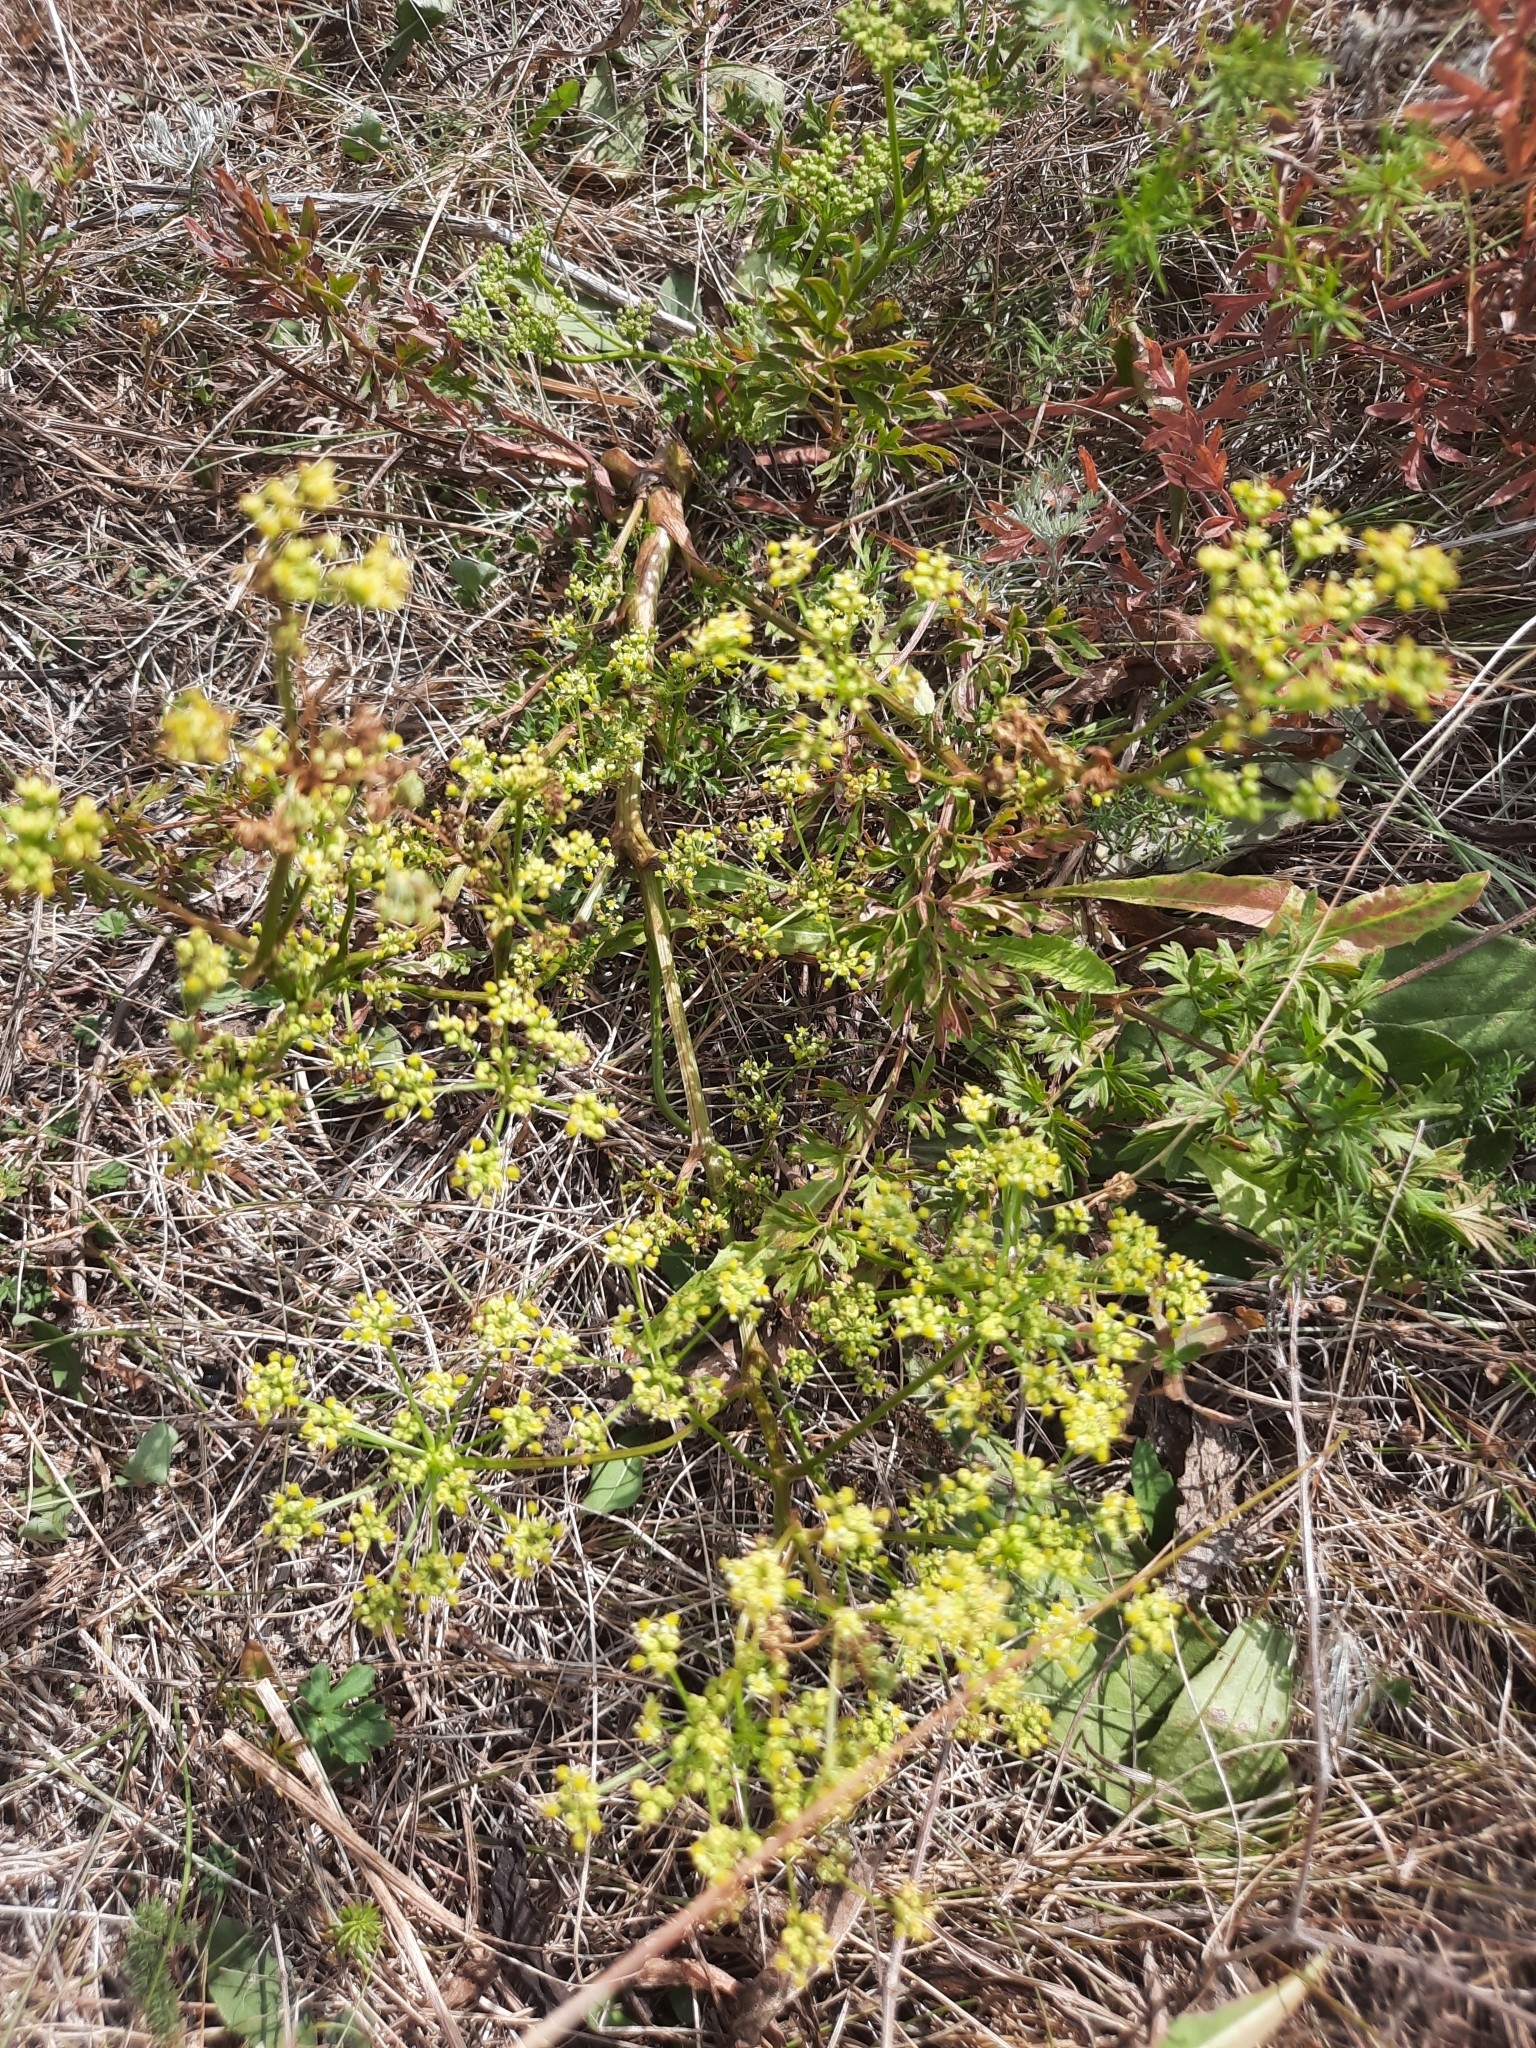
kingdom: Plantae
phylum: Tracheophyta
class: Magnoliopsida
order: Apiales
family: Apiaceae
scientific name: Apiaceae
